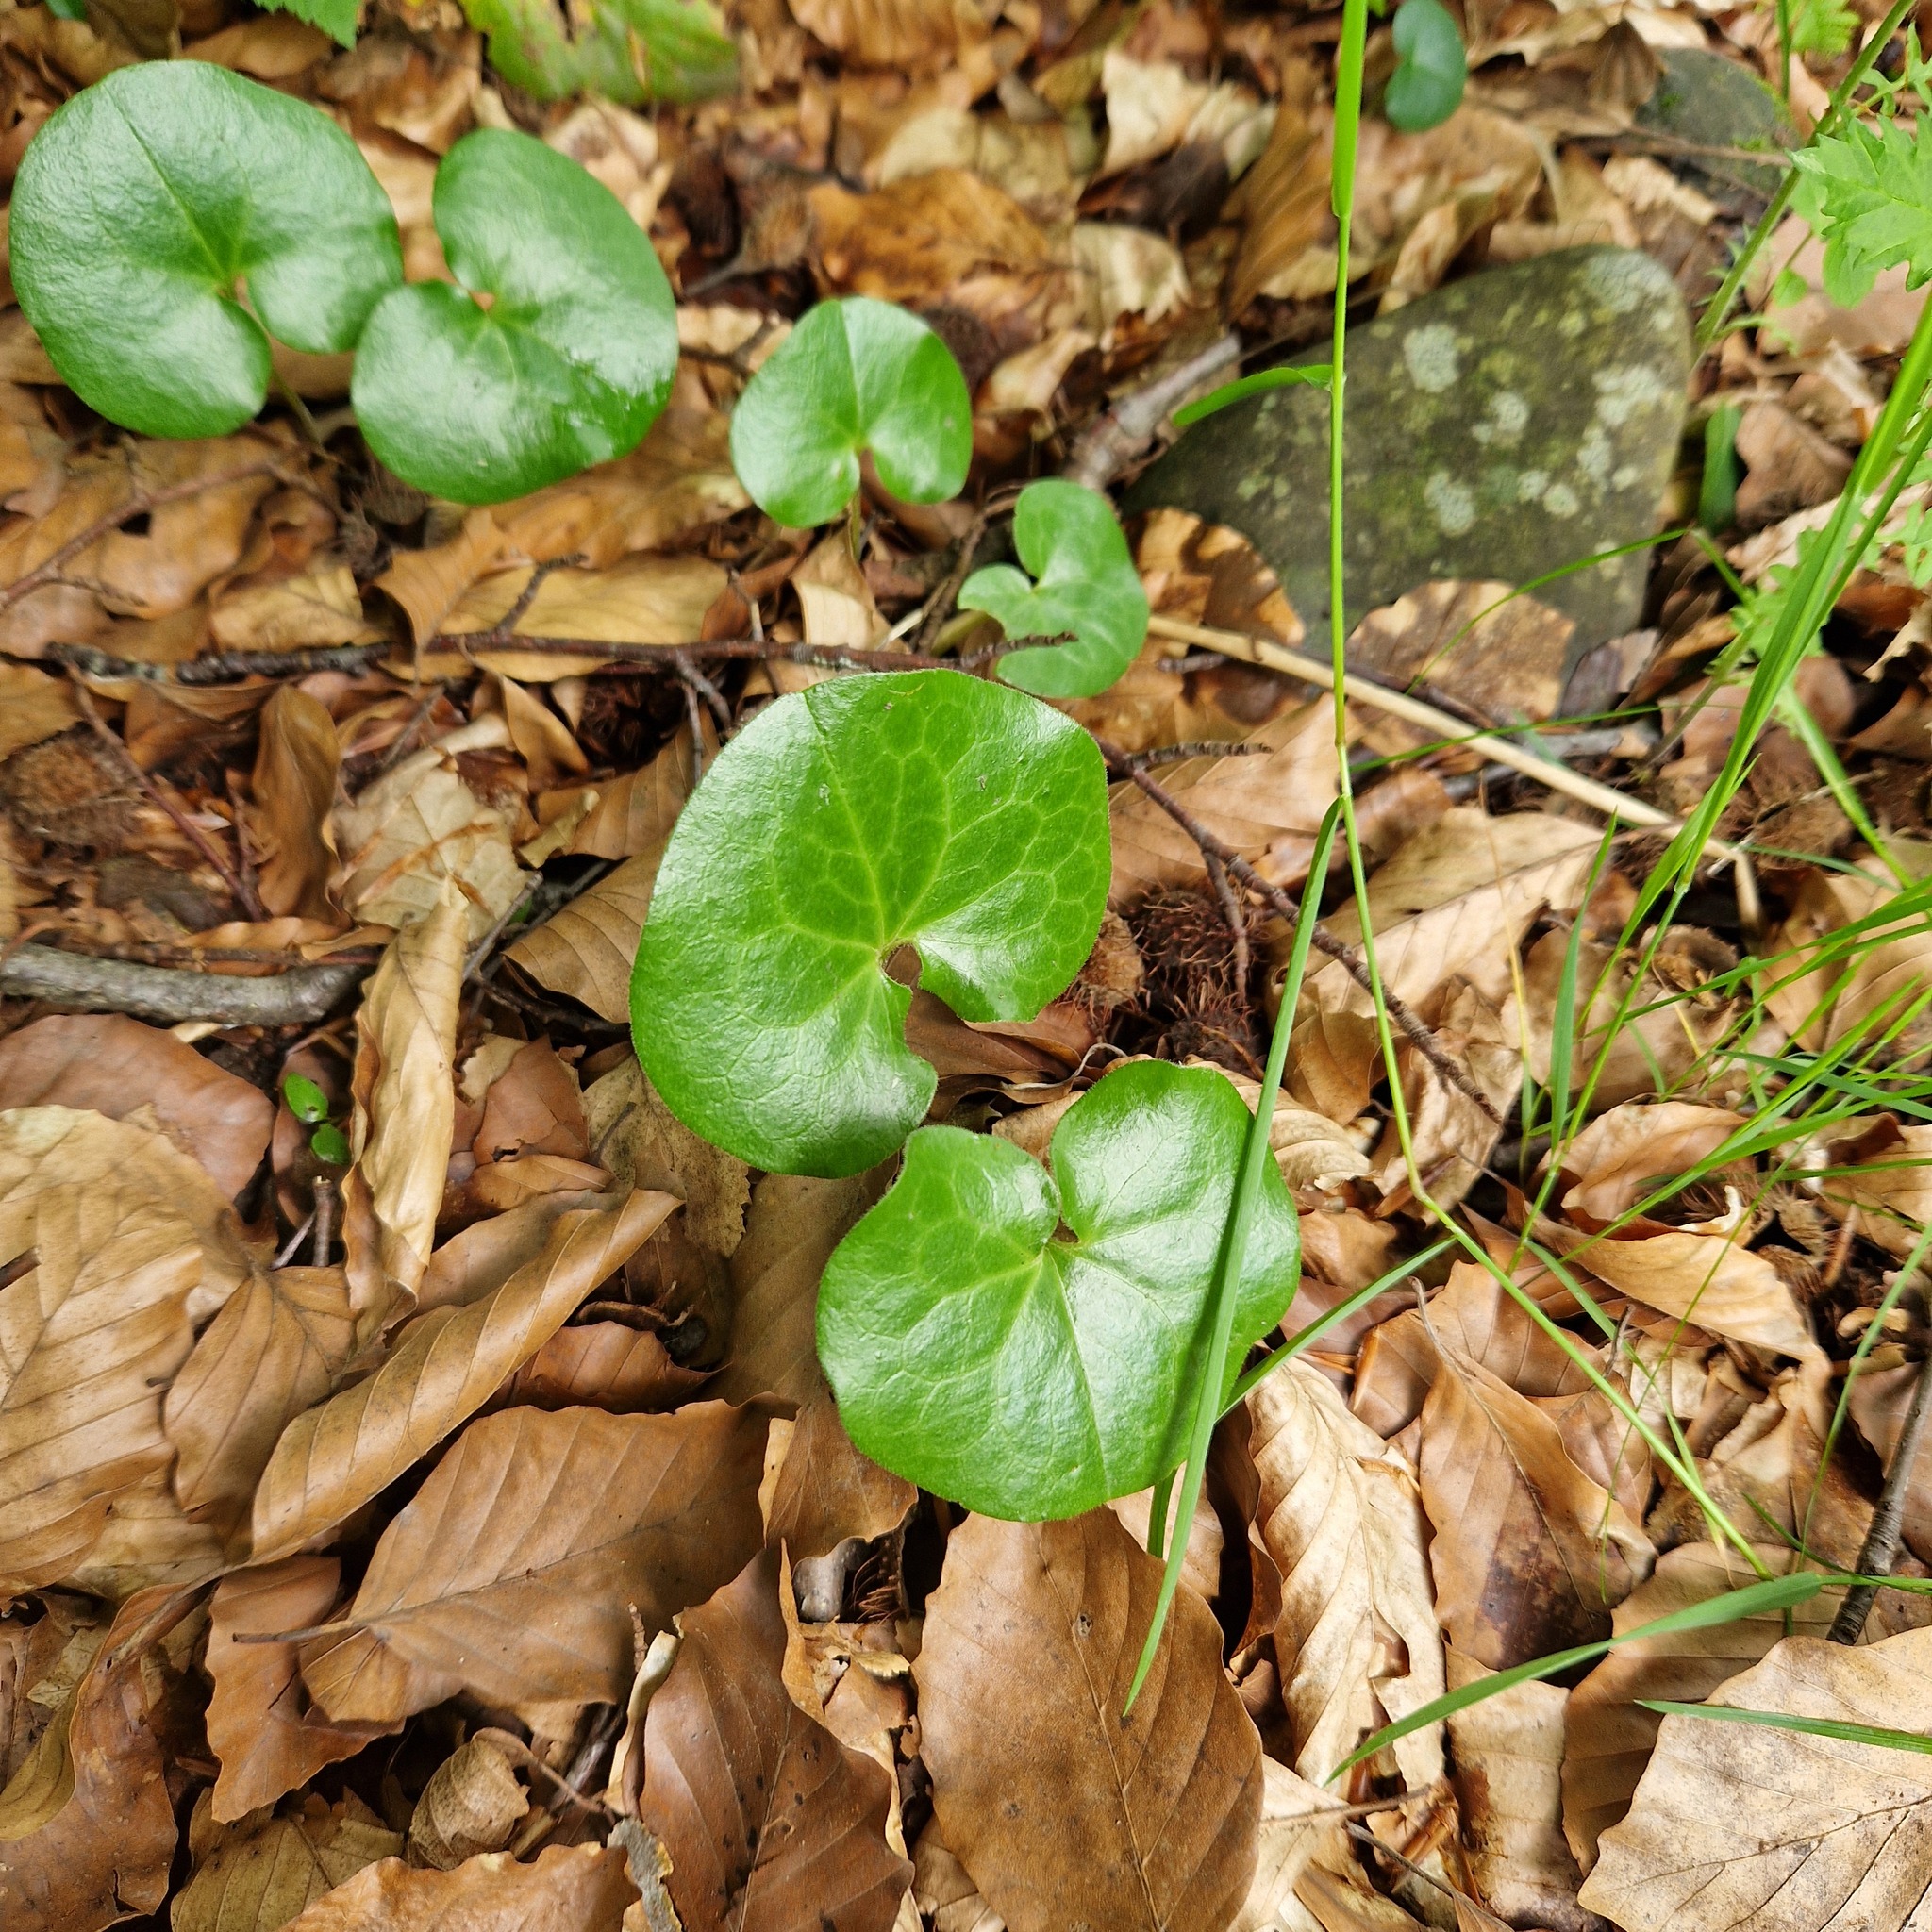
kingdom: Plantae
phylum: Tracheophyta
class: Magnoliopsida
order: Piperales
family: Aristolochiaceae
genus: Asarum
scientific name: Asarum europaeum
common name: Asarabacca
